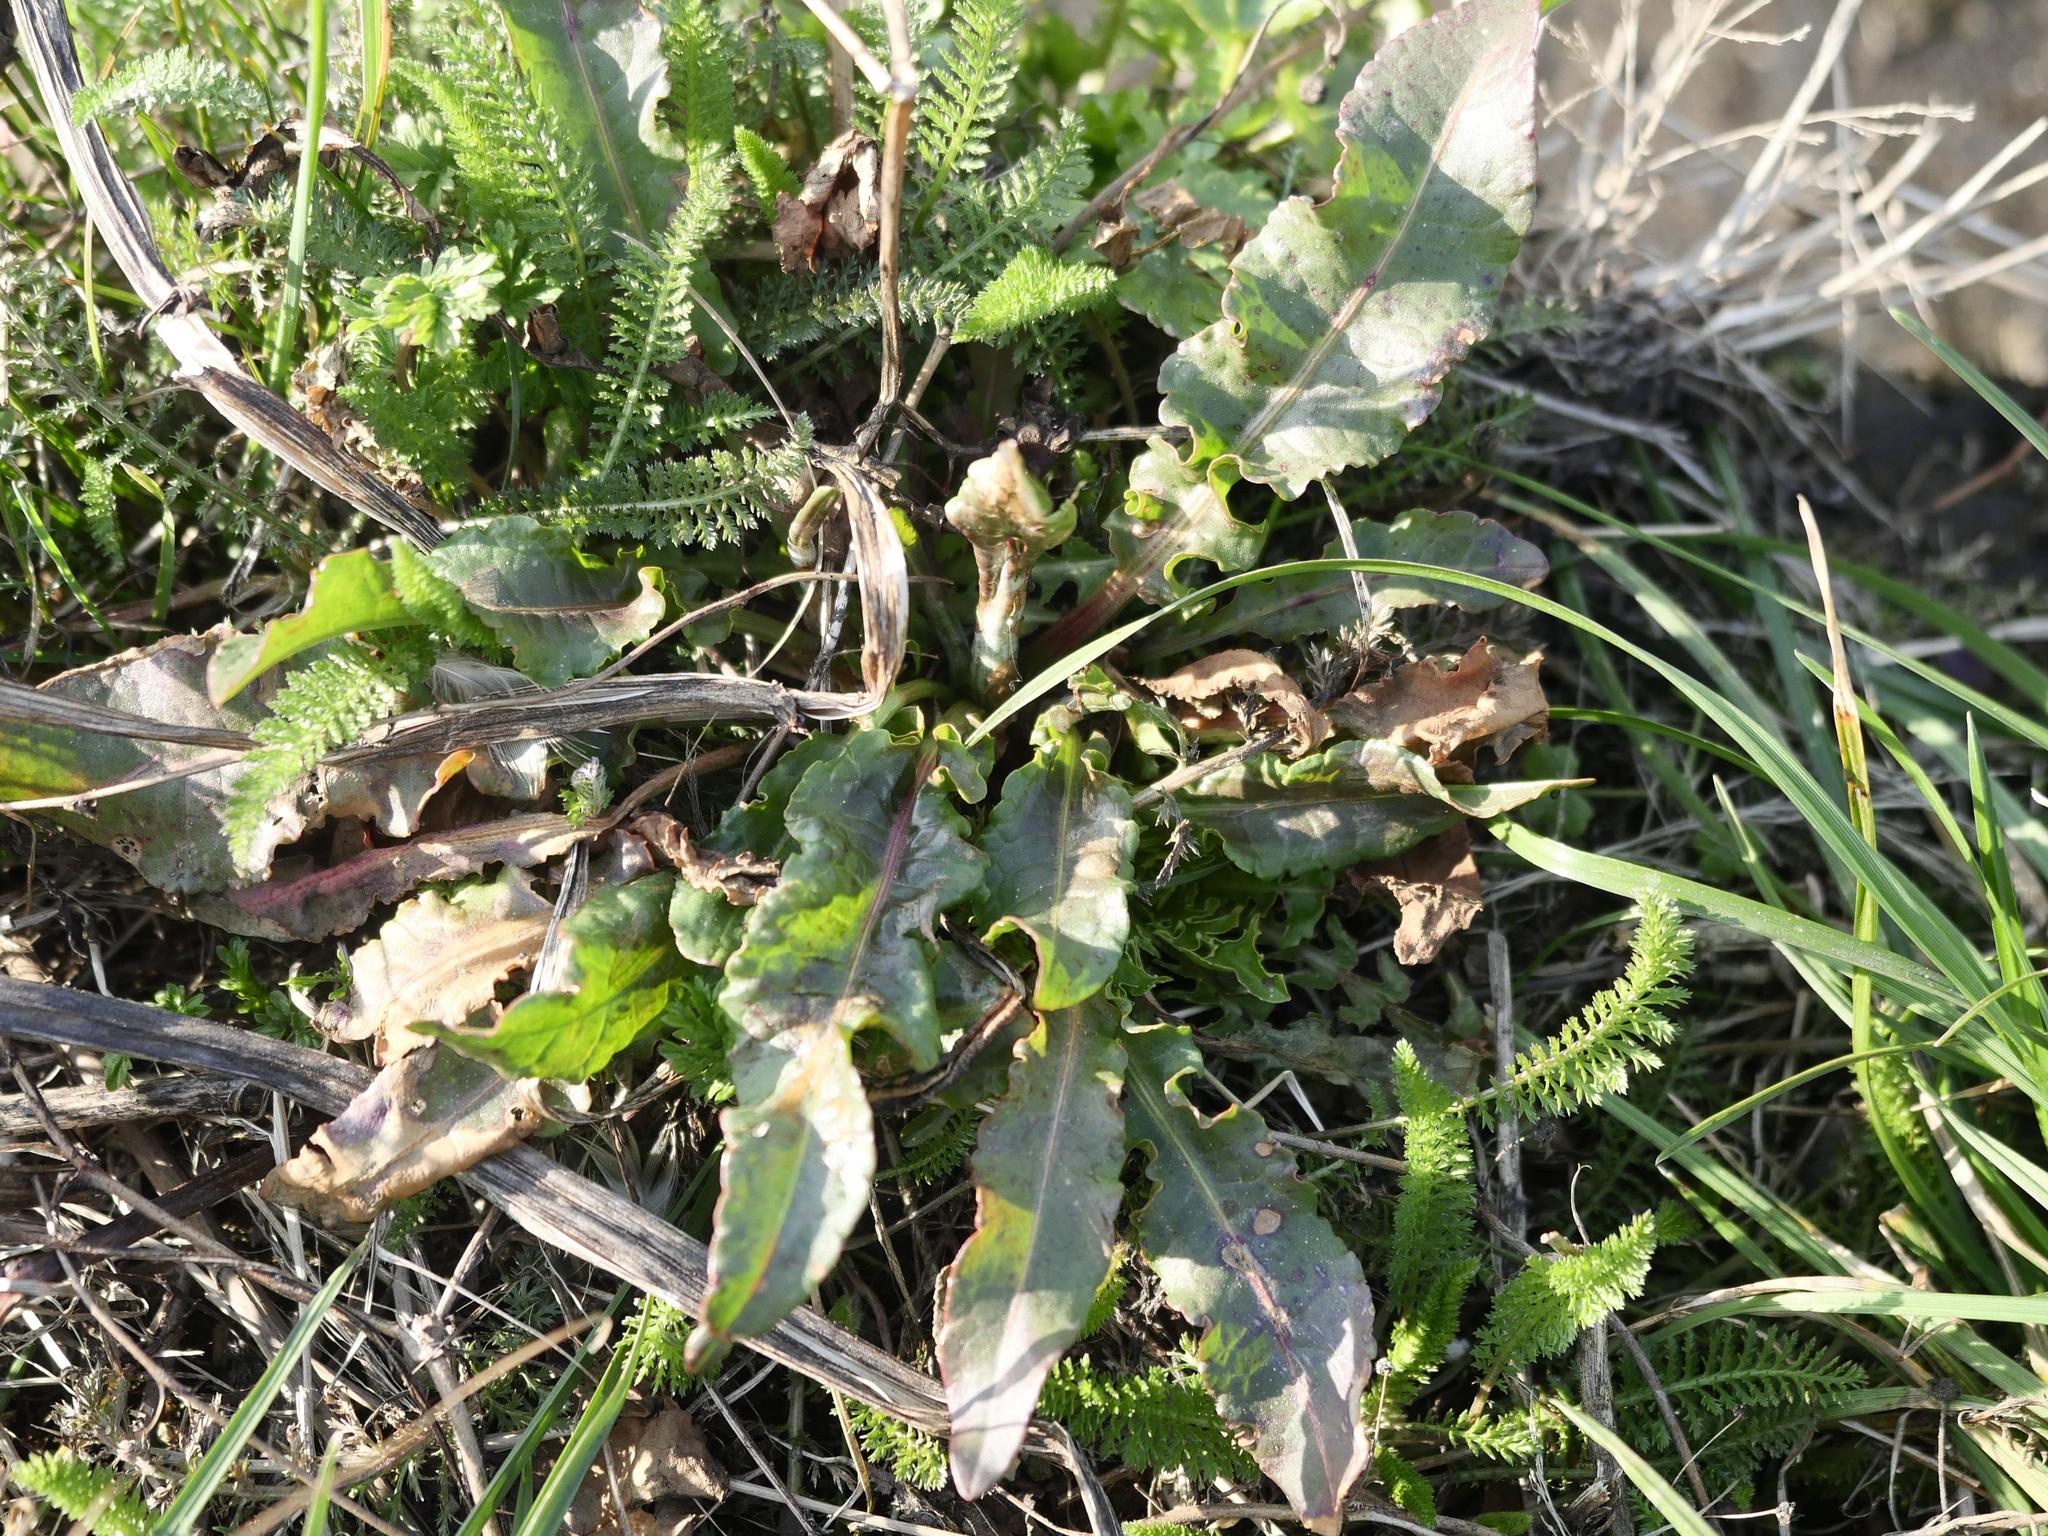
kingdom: Plantae
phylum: Tracheophyta
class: Magnoliopsida
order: Caryophyllales
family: Polygonaceae
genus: Rumex
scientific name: Rumex crispus
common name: Curled dock
